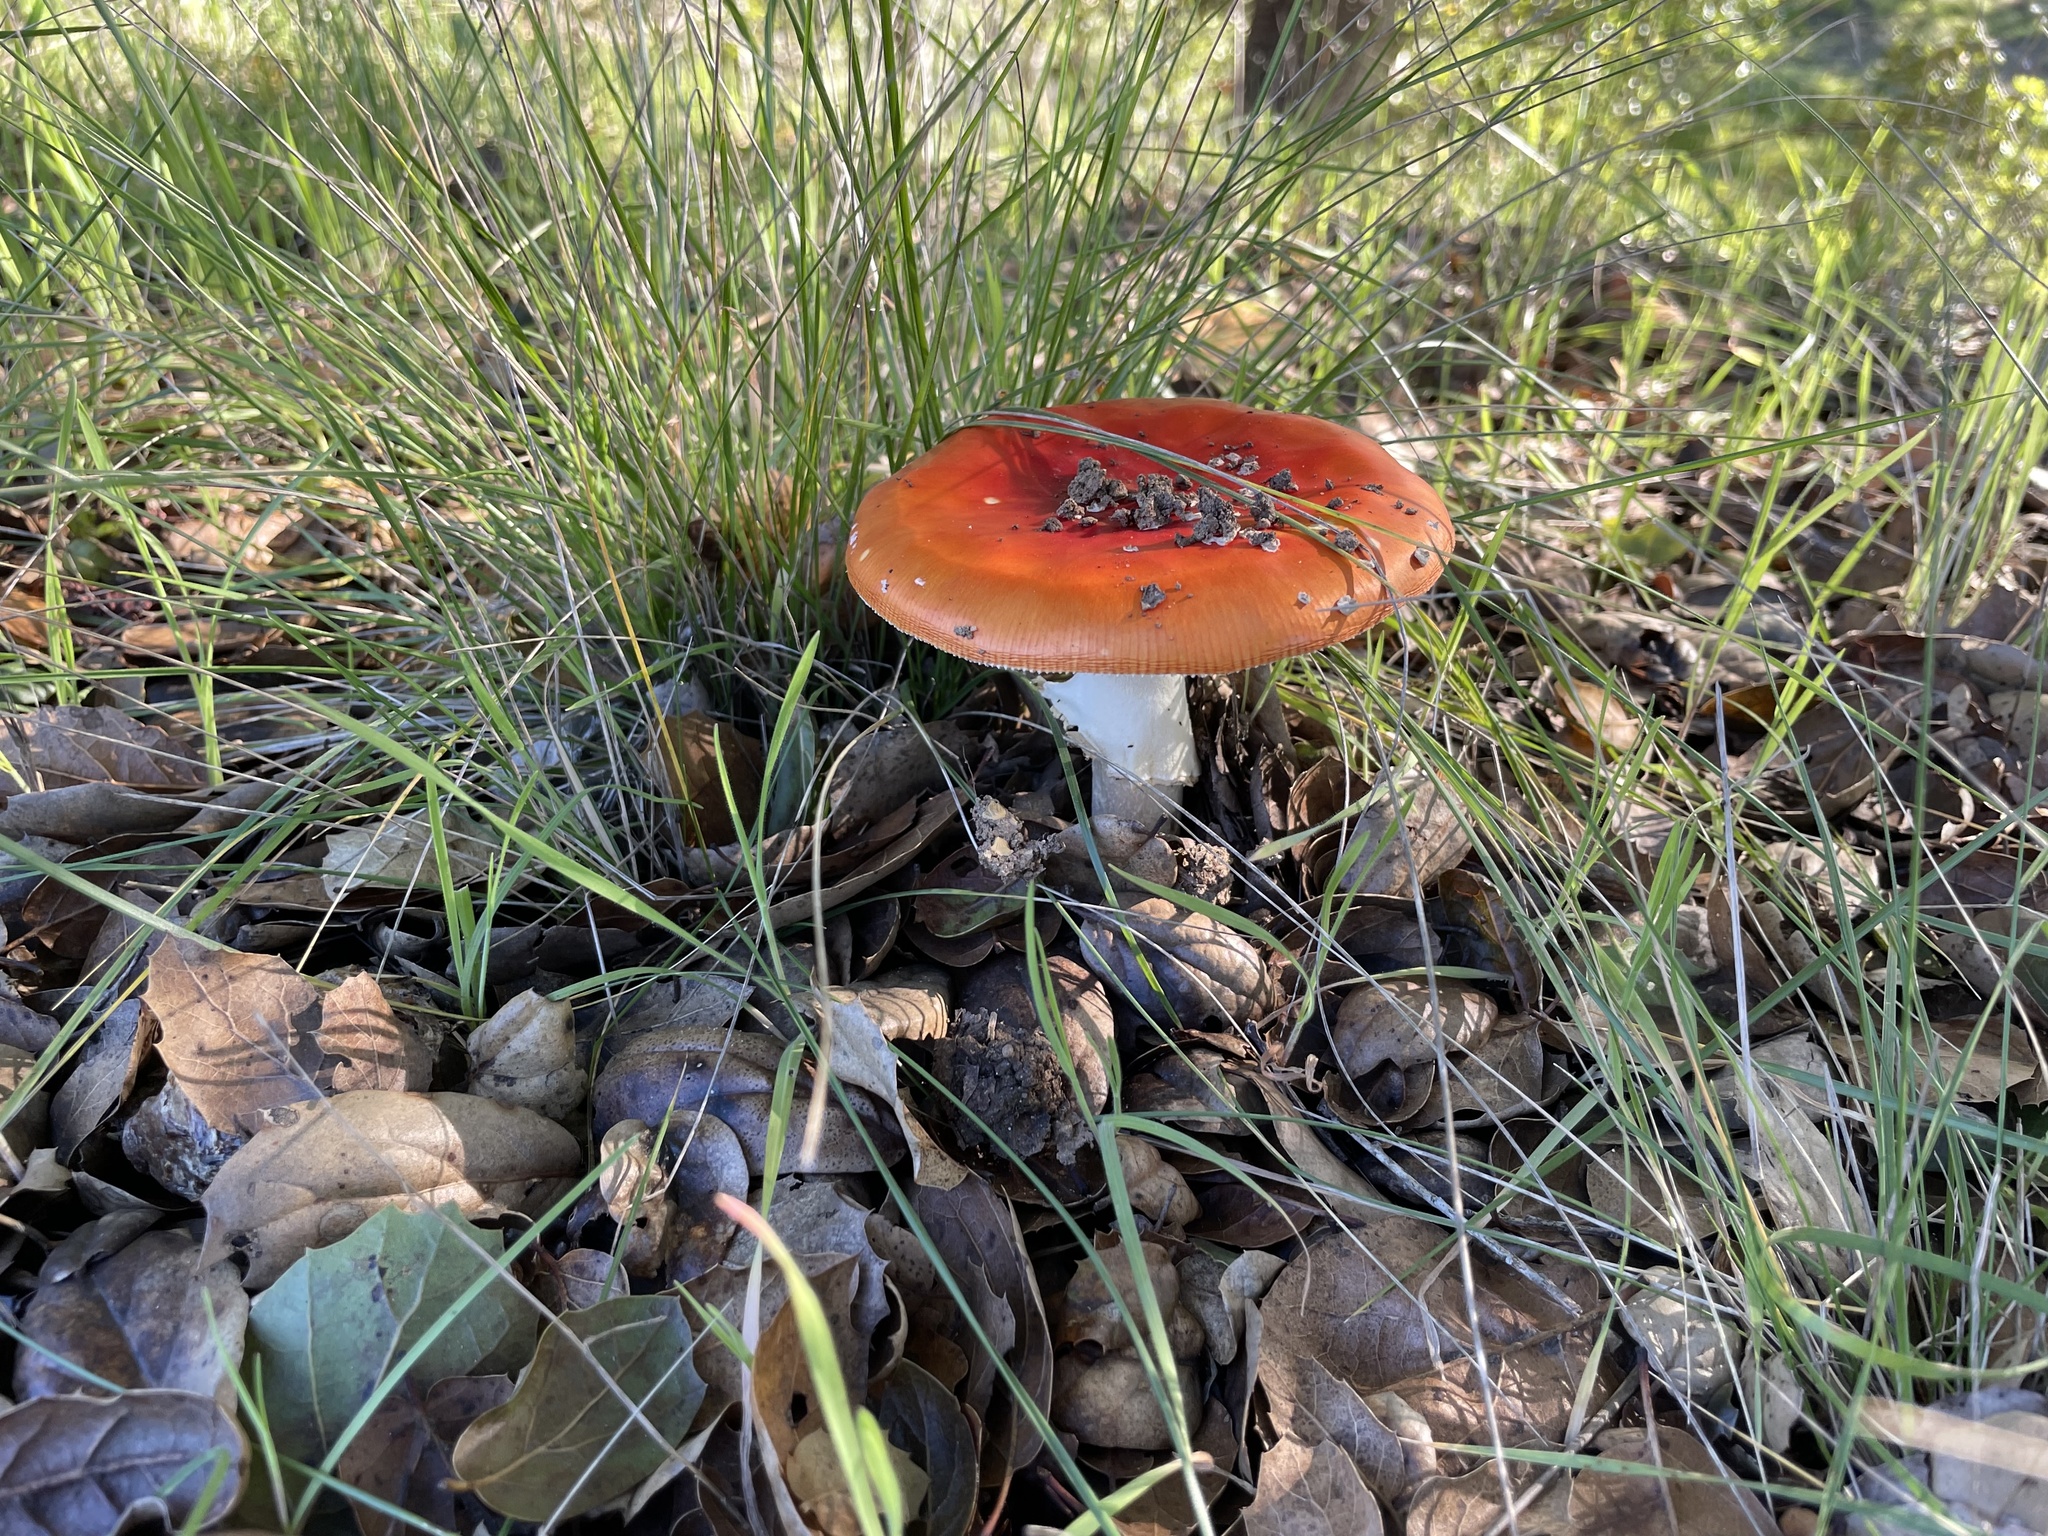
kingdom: Fungi
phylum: Basidiomycota
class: Agaricomycetes
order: Agaricales
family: Amanitaceae
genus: Amanita
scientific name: Amanita muscaria
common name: Fly agaric
